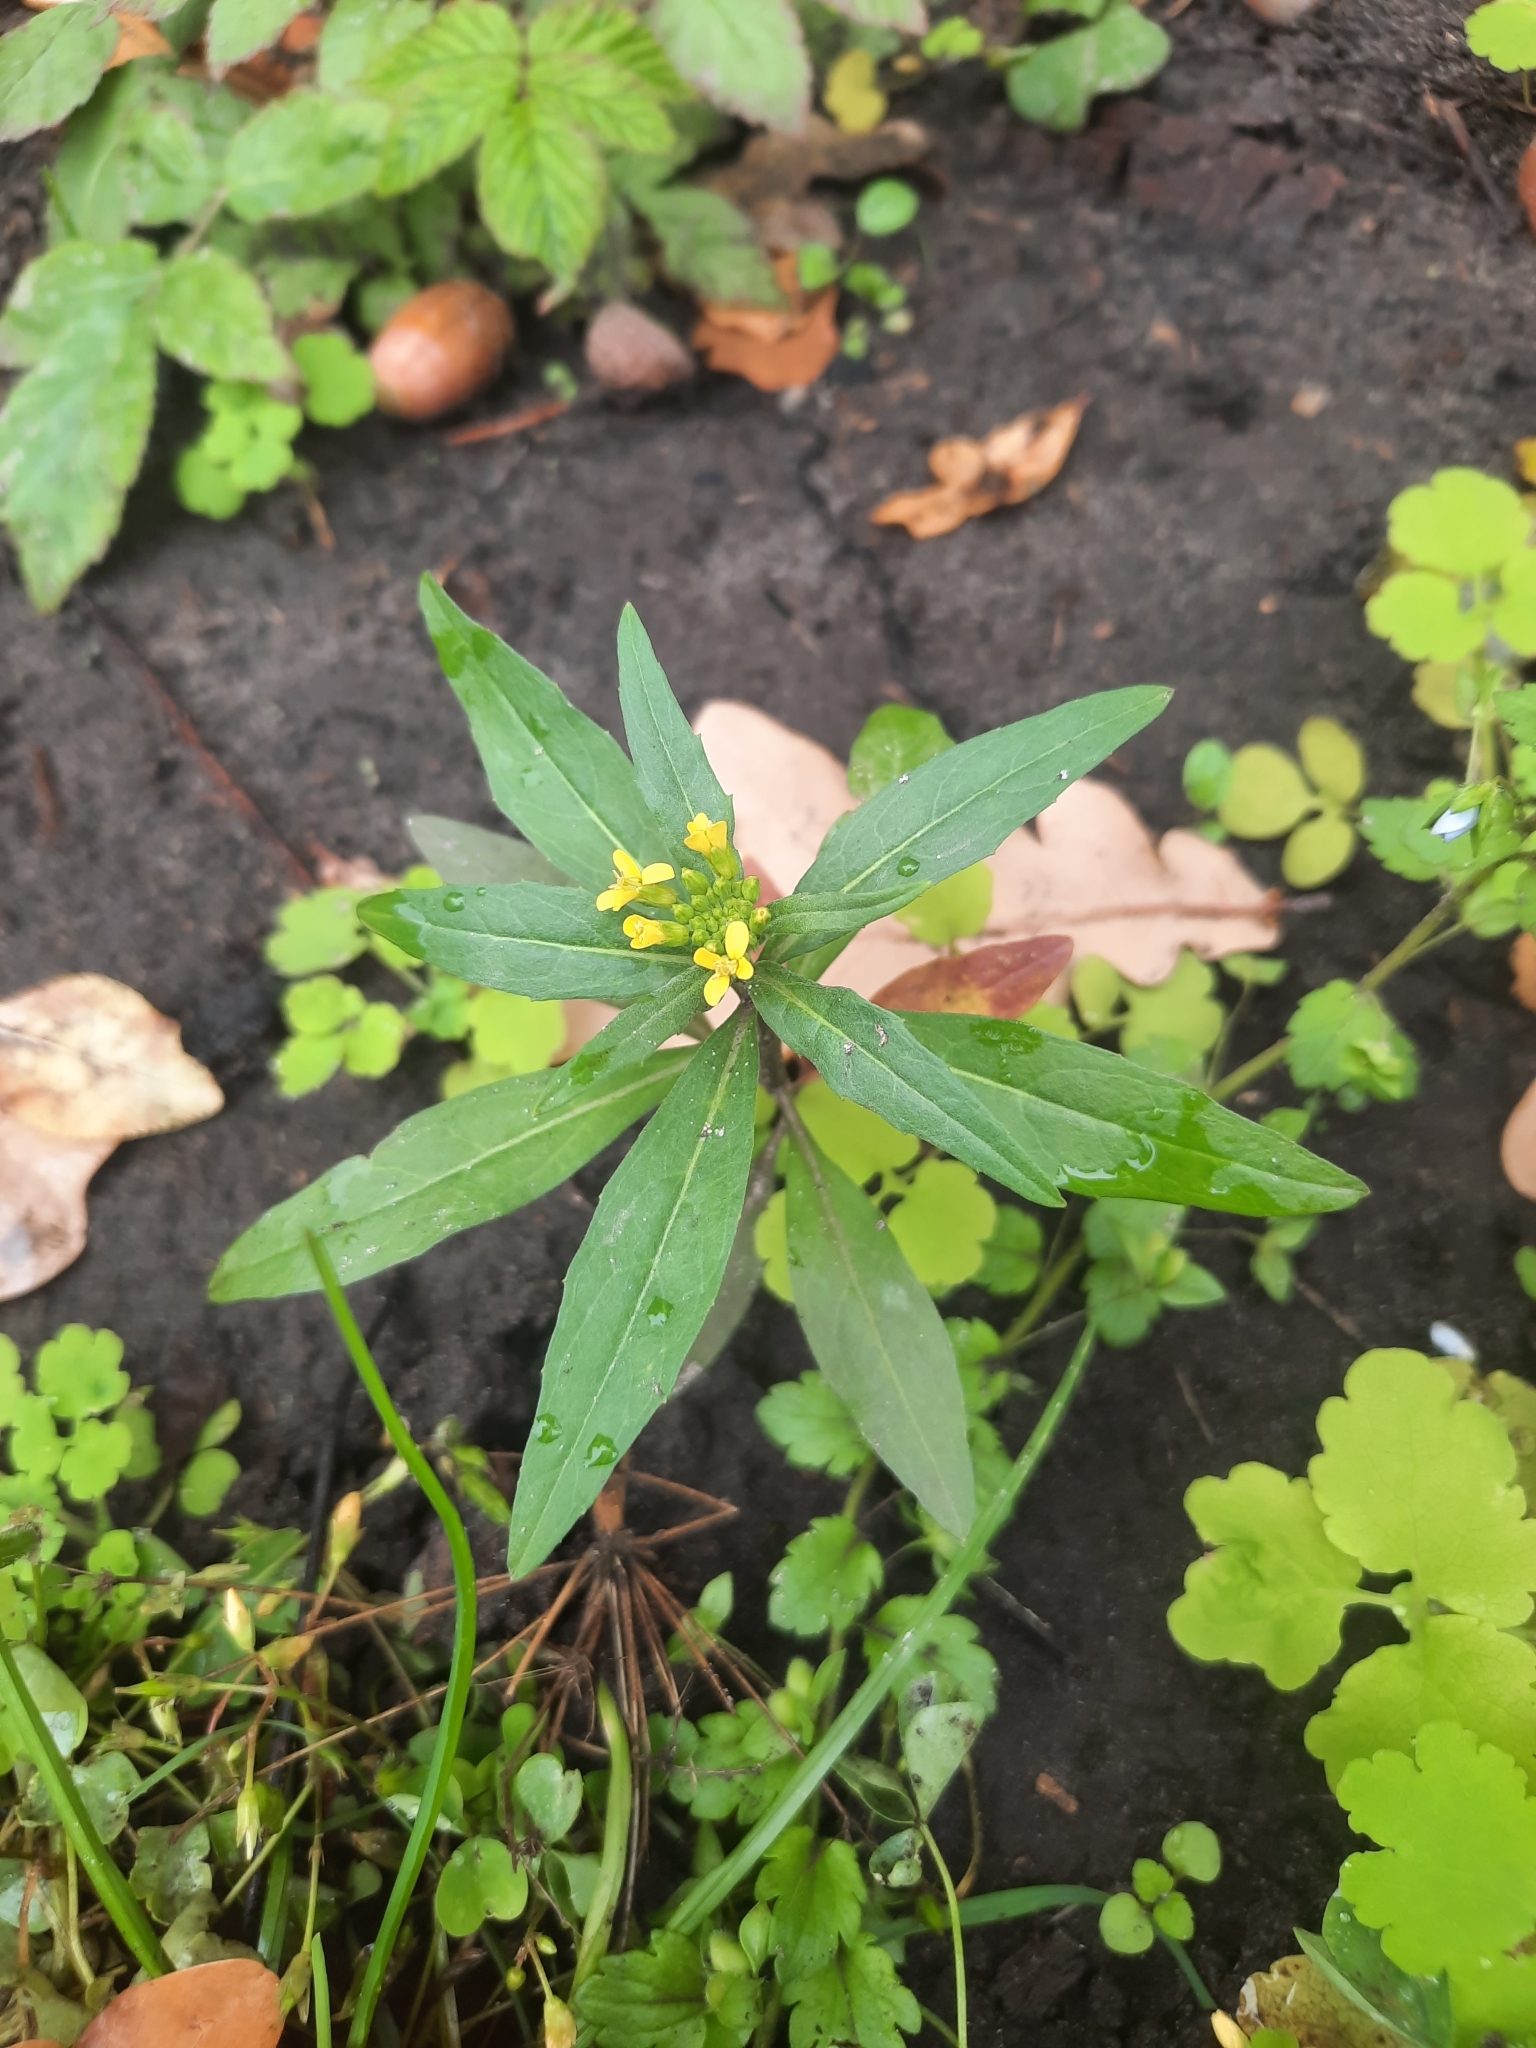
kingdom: Plantae
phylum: Tracheophyta
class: Magnoliopsida
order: Brassicales
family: Brassicaceae
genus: Erysimum
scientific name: Erysimum cheiranthoides
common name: Treacle mustard
